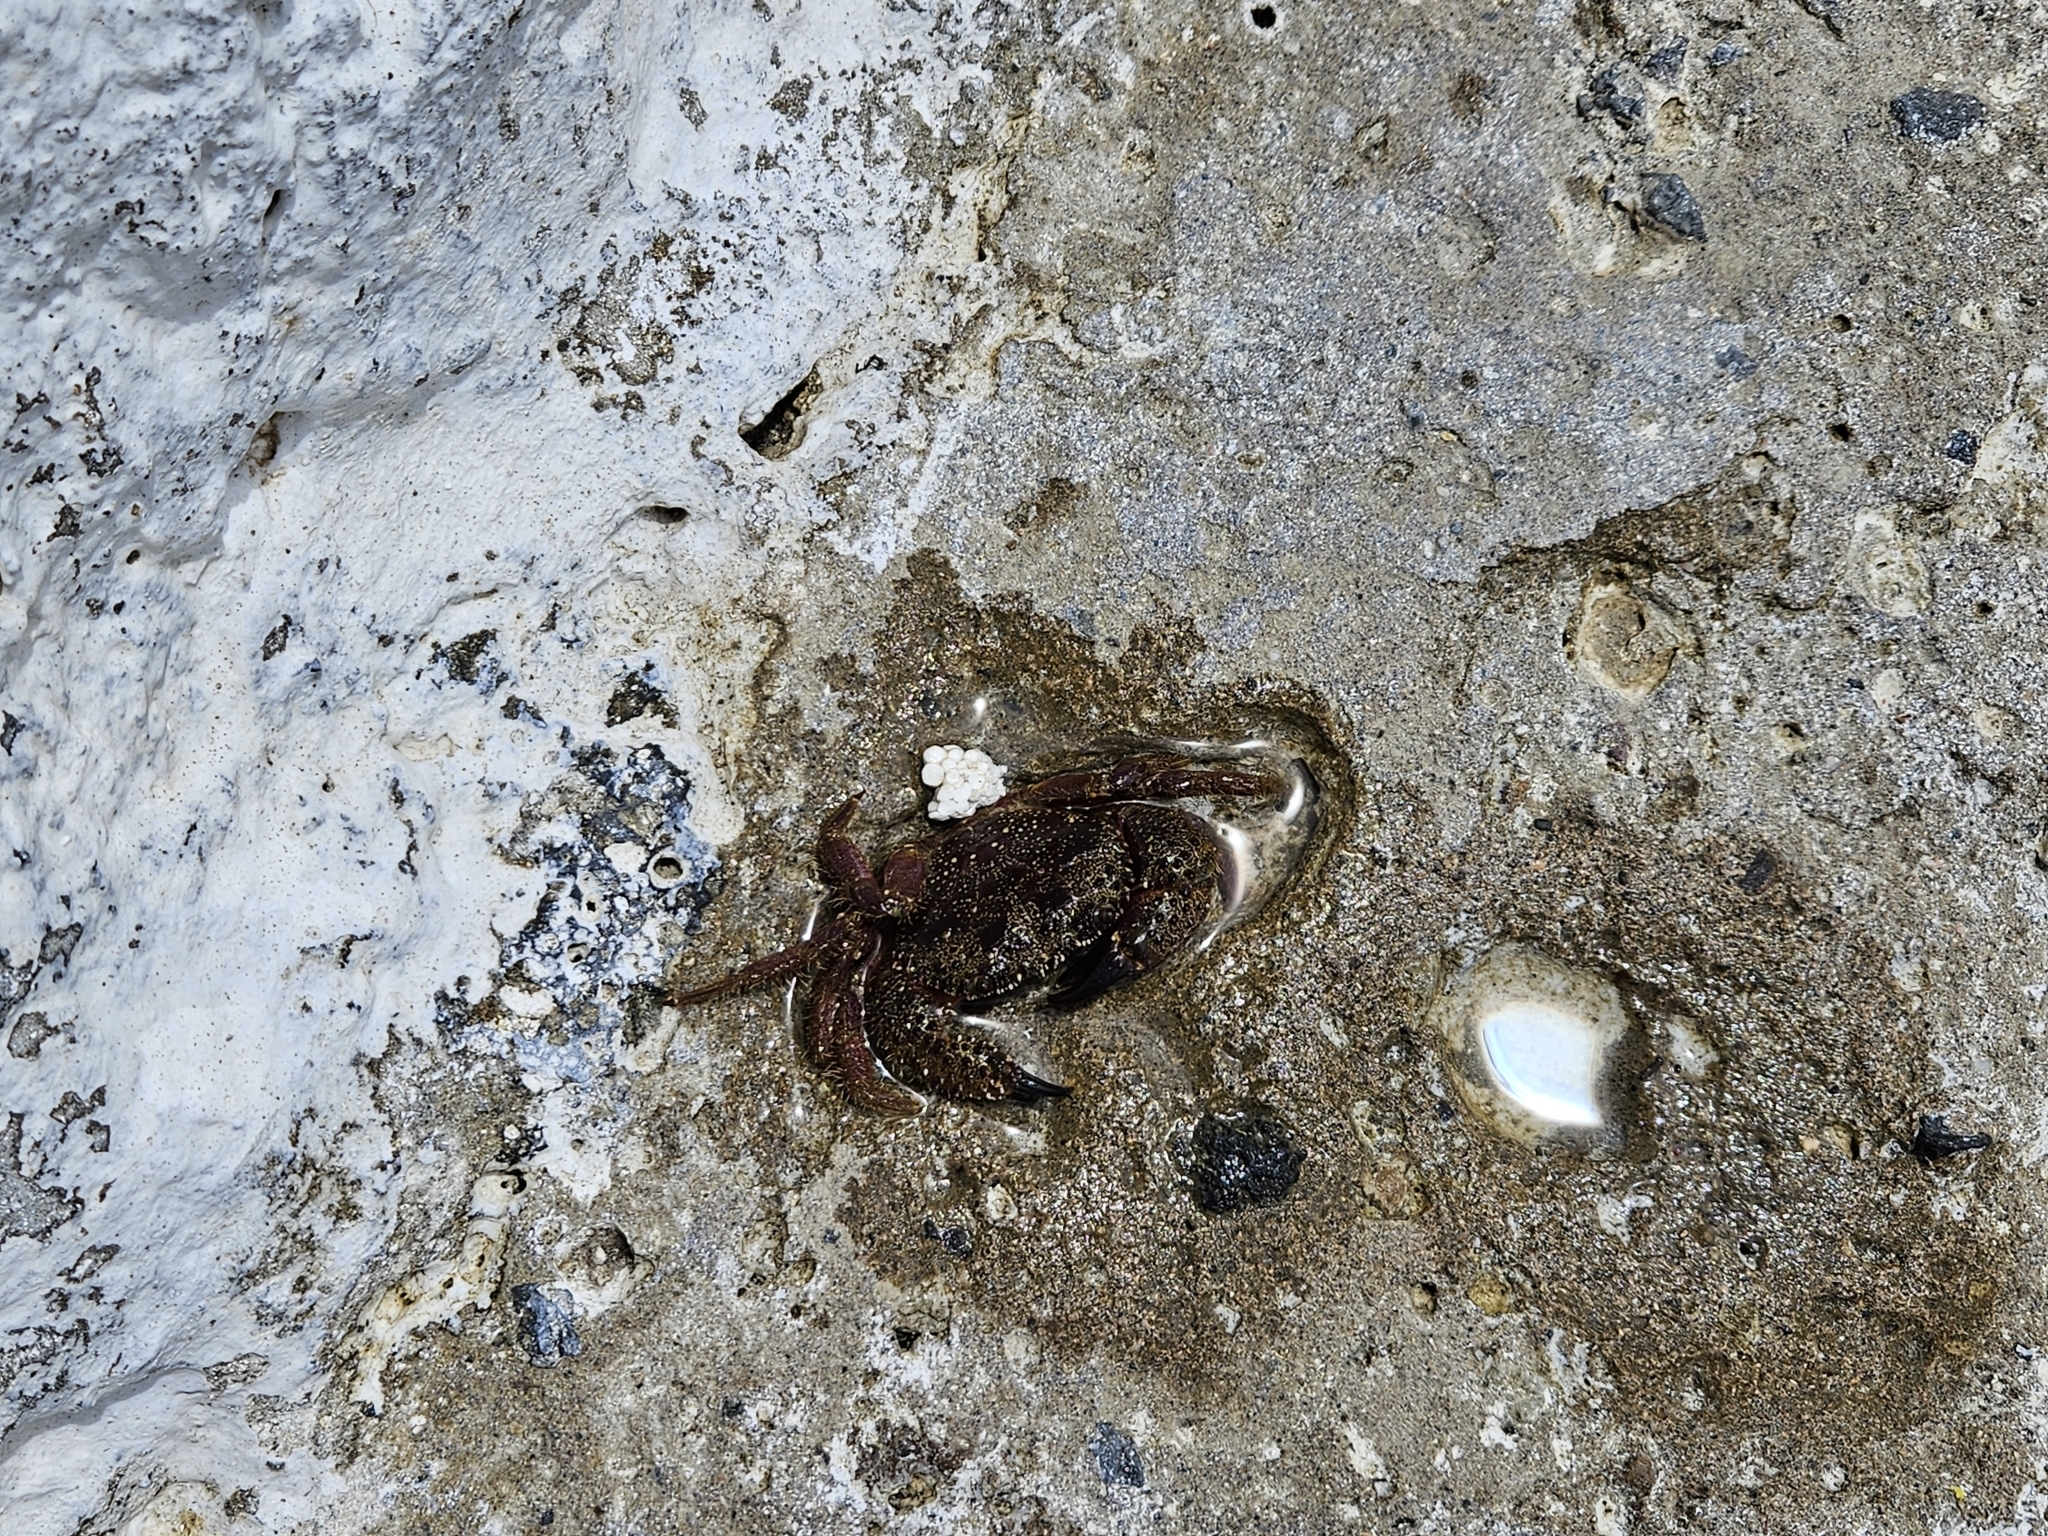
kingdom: Animalia
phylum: Arthropoda
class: Malacostraca
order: Decapoda
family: Eriphiidae
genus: Eriphia
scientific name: Eriphia verrucosa
